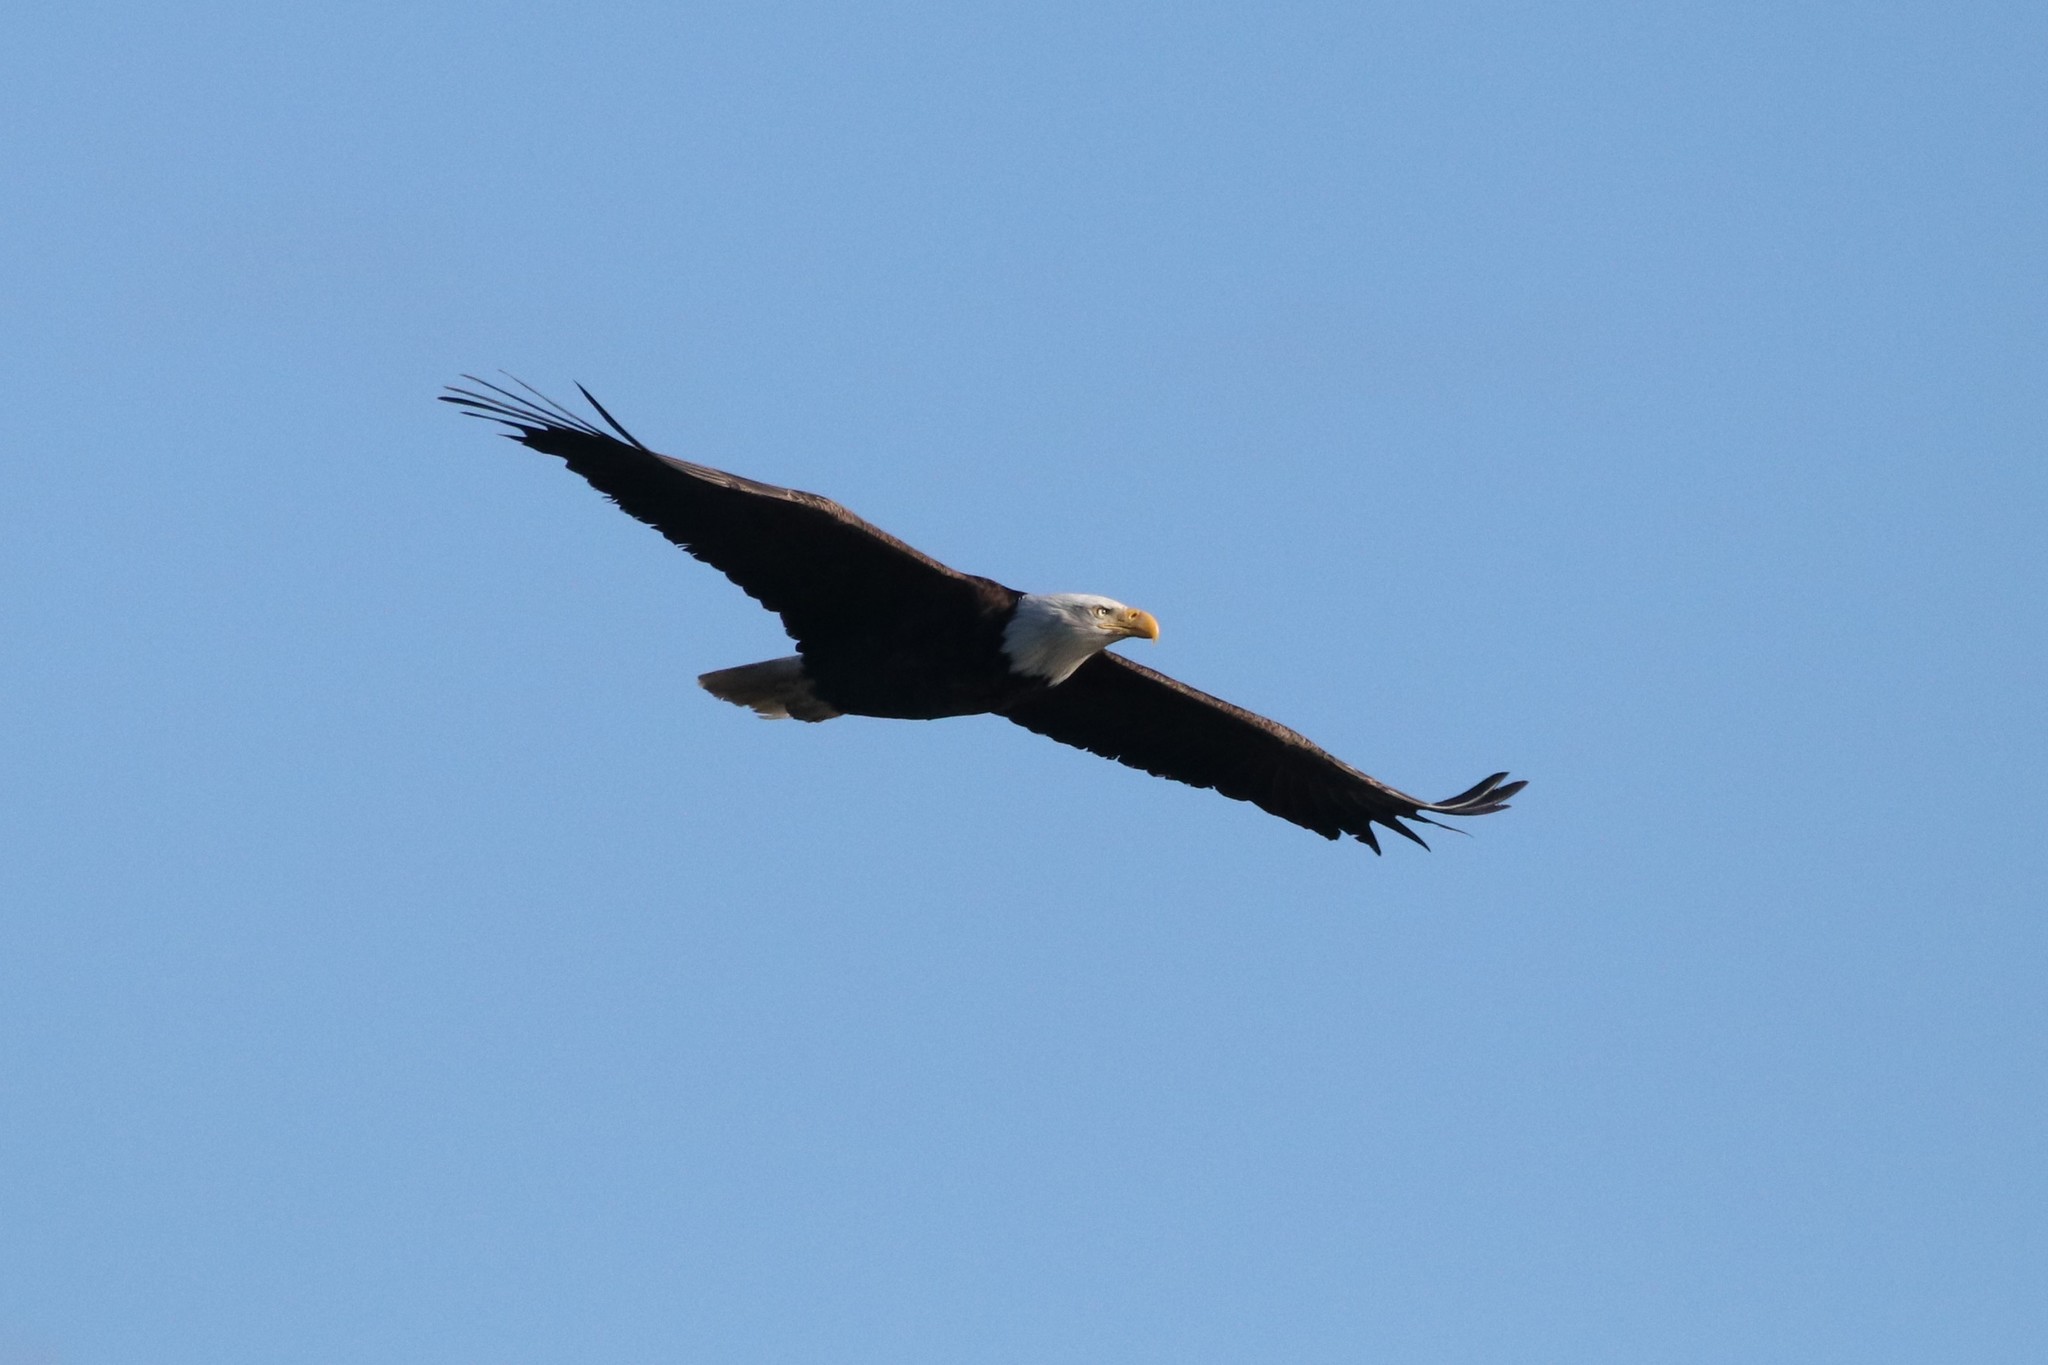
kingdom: Animalia
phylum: Chordata
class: Aves
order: Accipitriformes
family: Accipitridae
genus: Haliaeetus
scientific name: Haliaeetus leucocephalus
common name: Bald eagle
